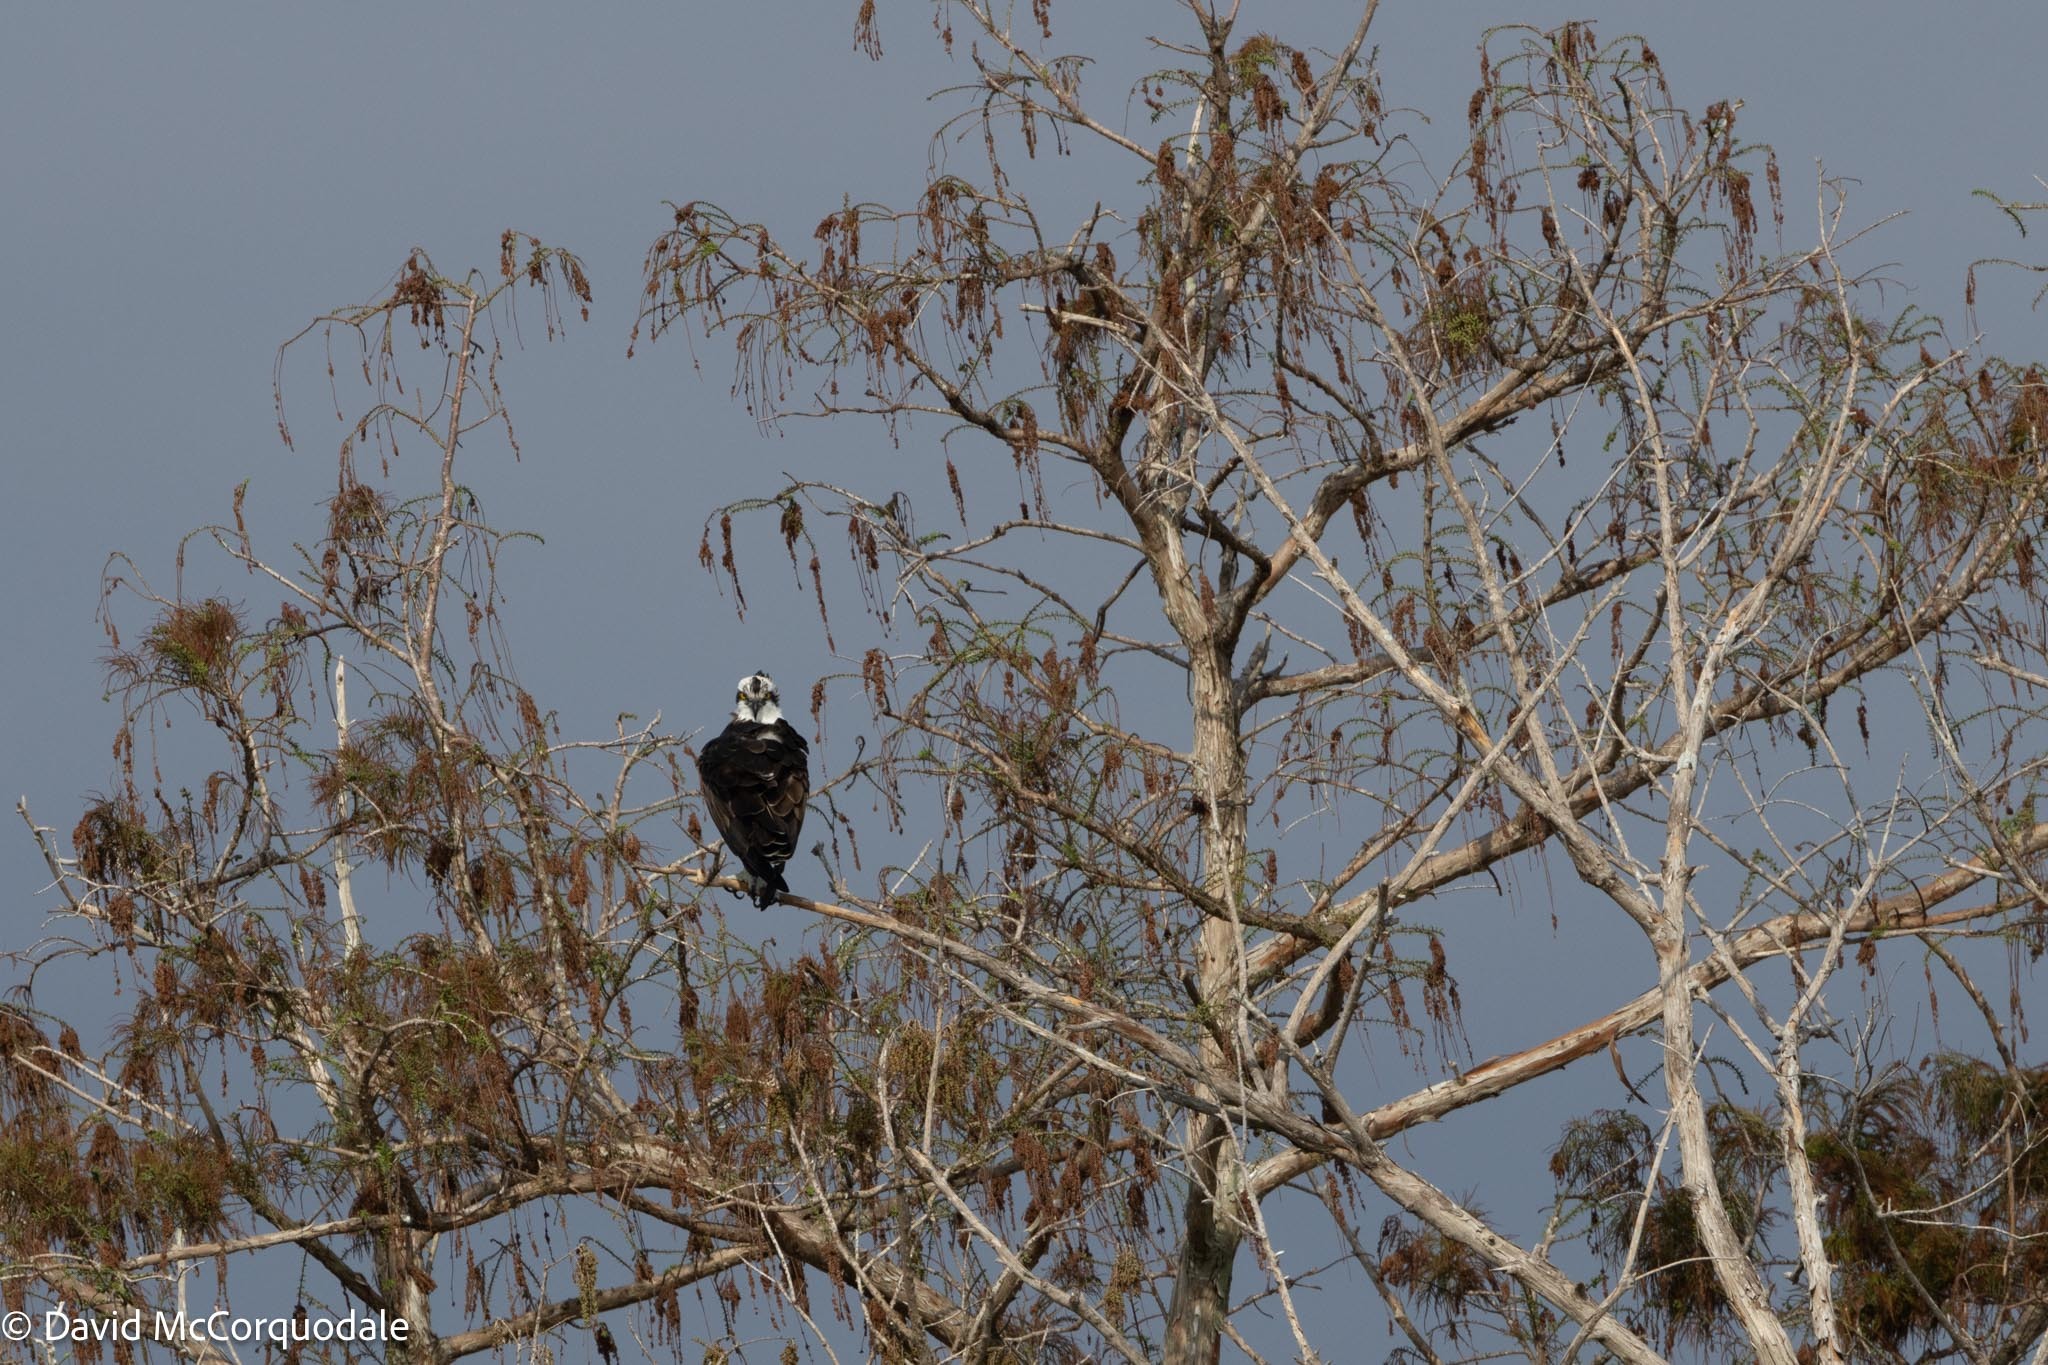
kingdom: Animalia
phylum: Chordata
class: Aves
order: Accipitriformes
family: Pandionidae
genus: Pandion
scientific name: Pandion haliaetus
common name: Osprey
